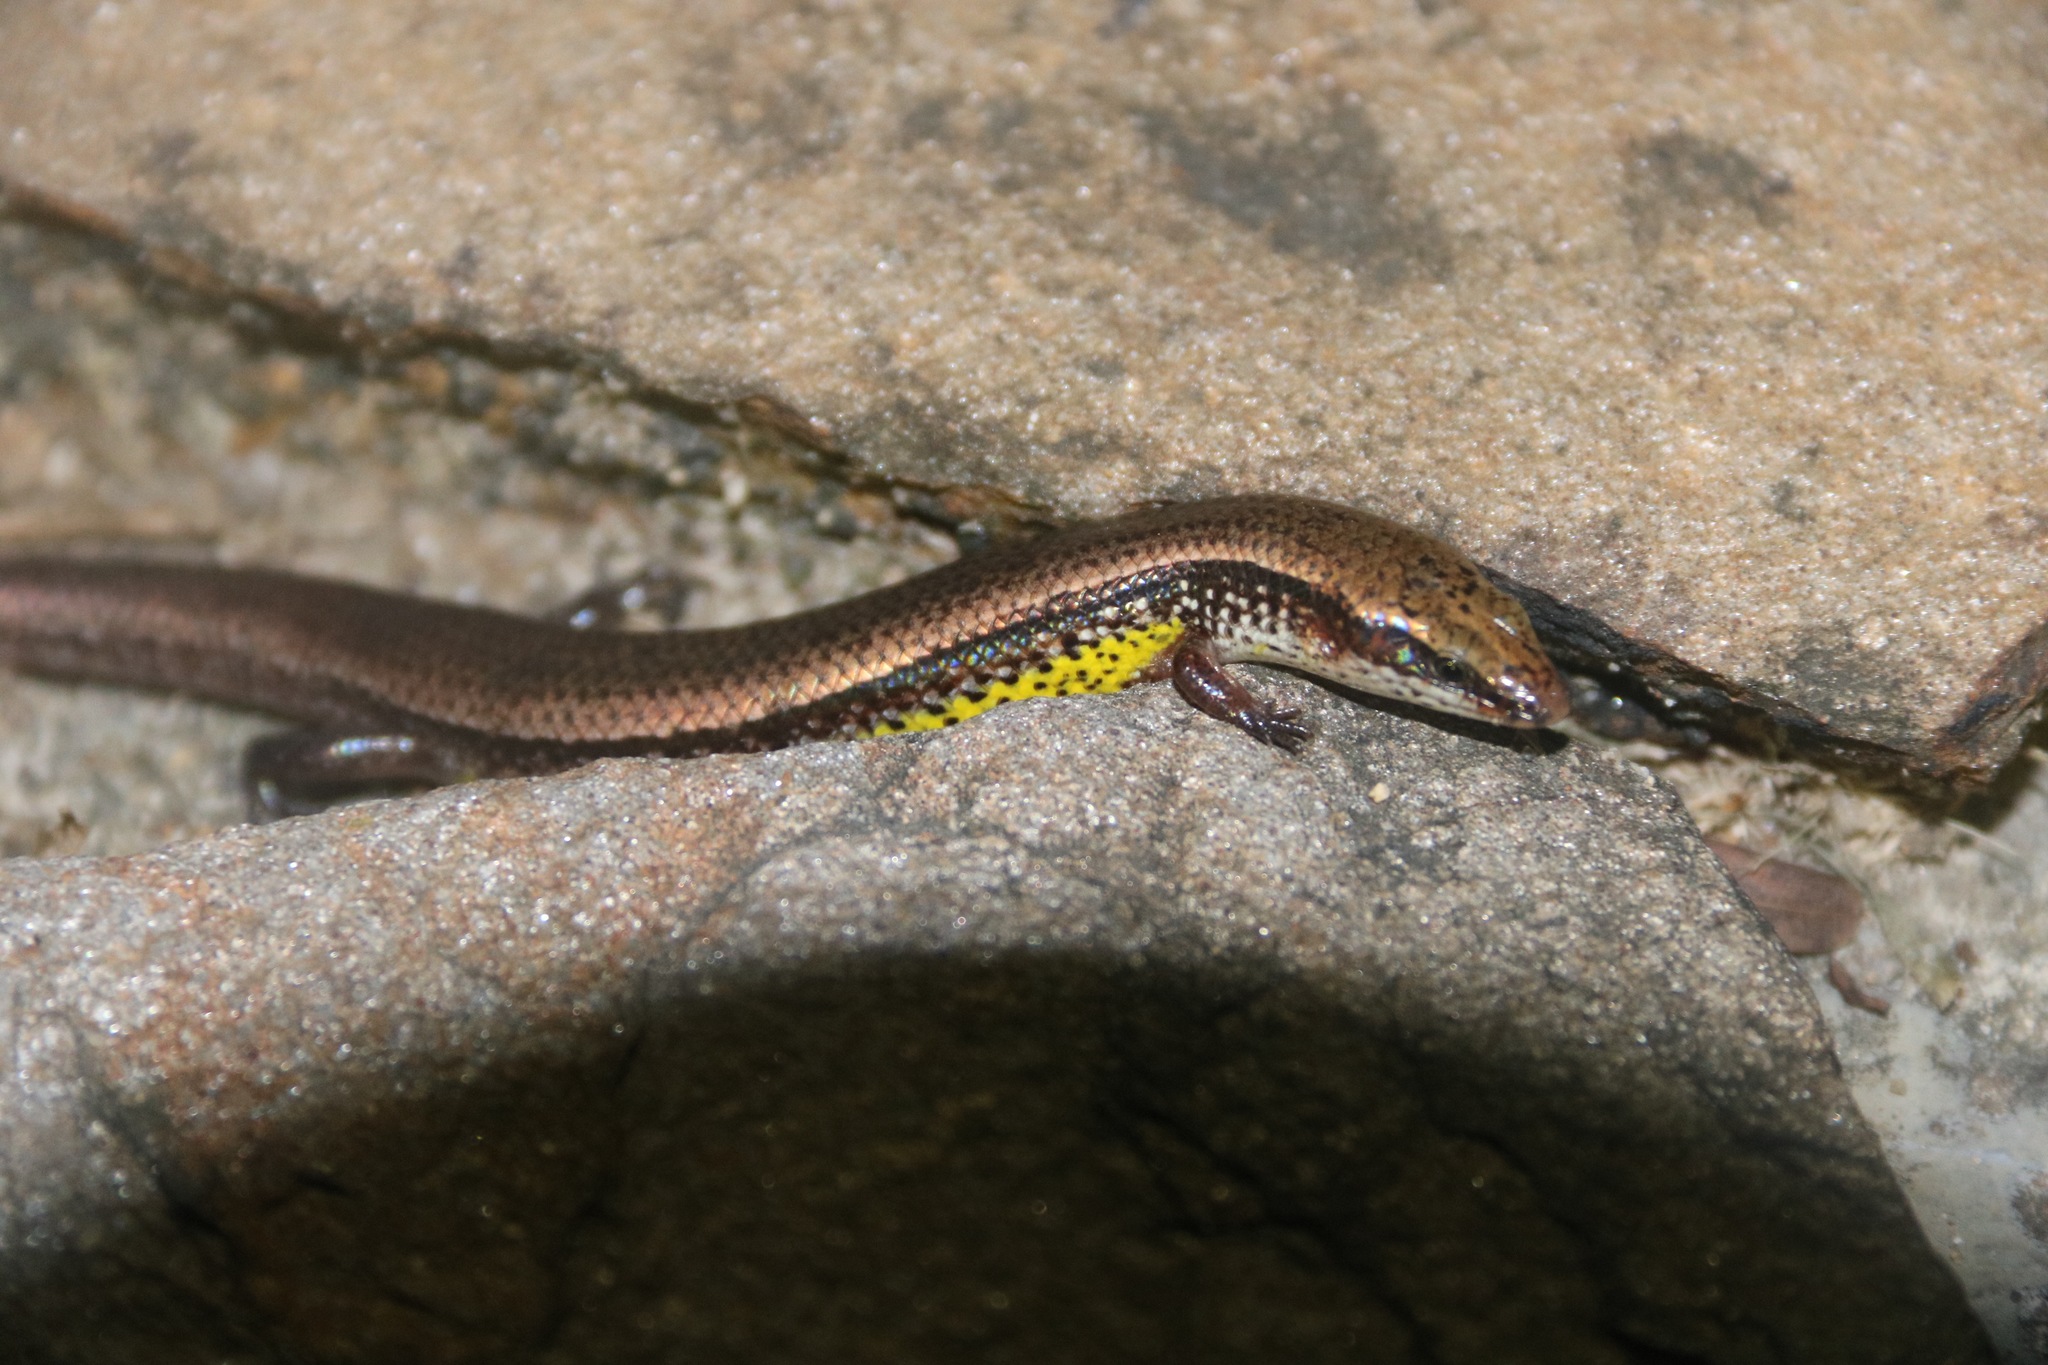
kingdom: Animalia
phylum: Chordata
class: Squamata
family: Scincidae
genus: Subdoluseps
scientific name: Subdoluseps bowringii
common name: Christmas island grass-skink
